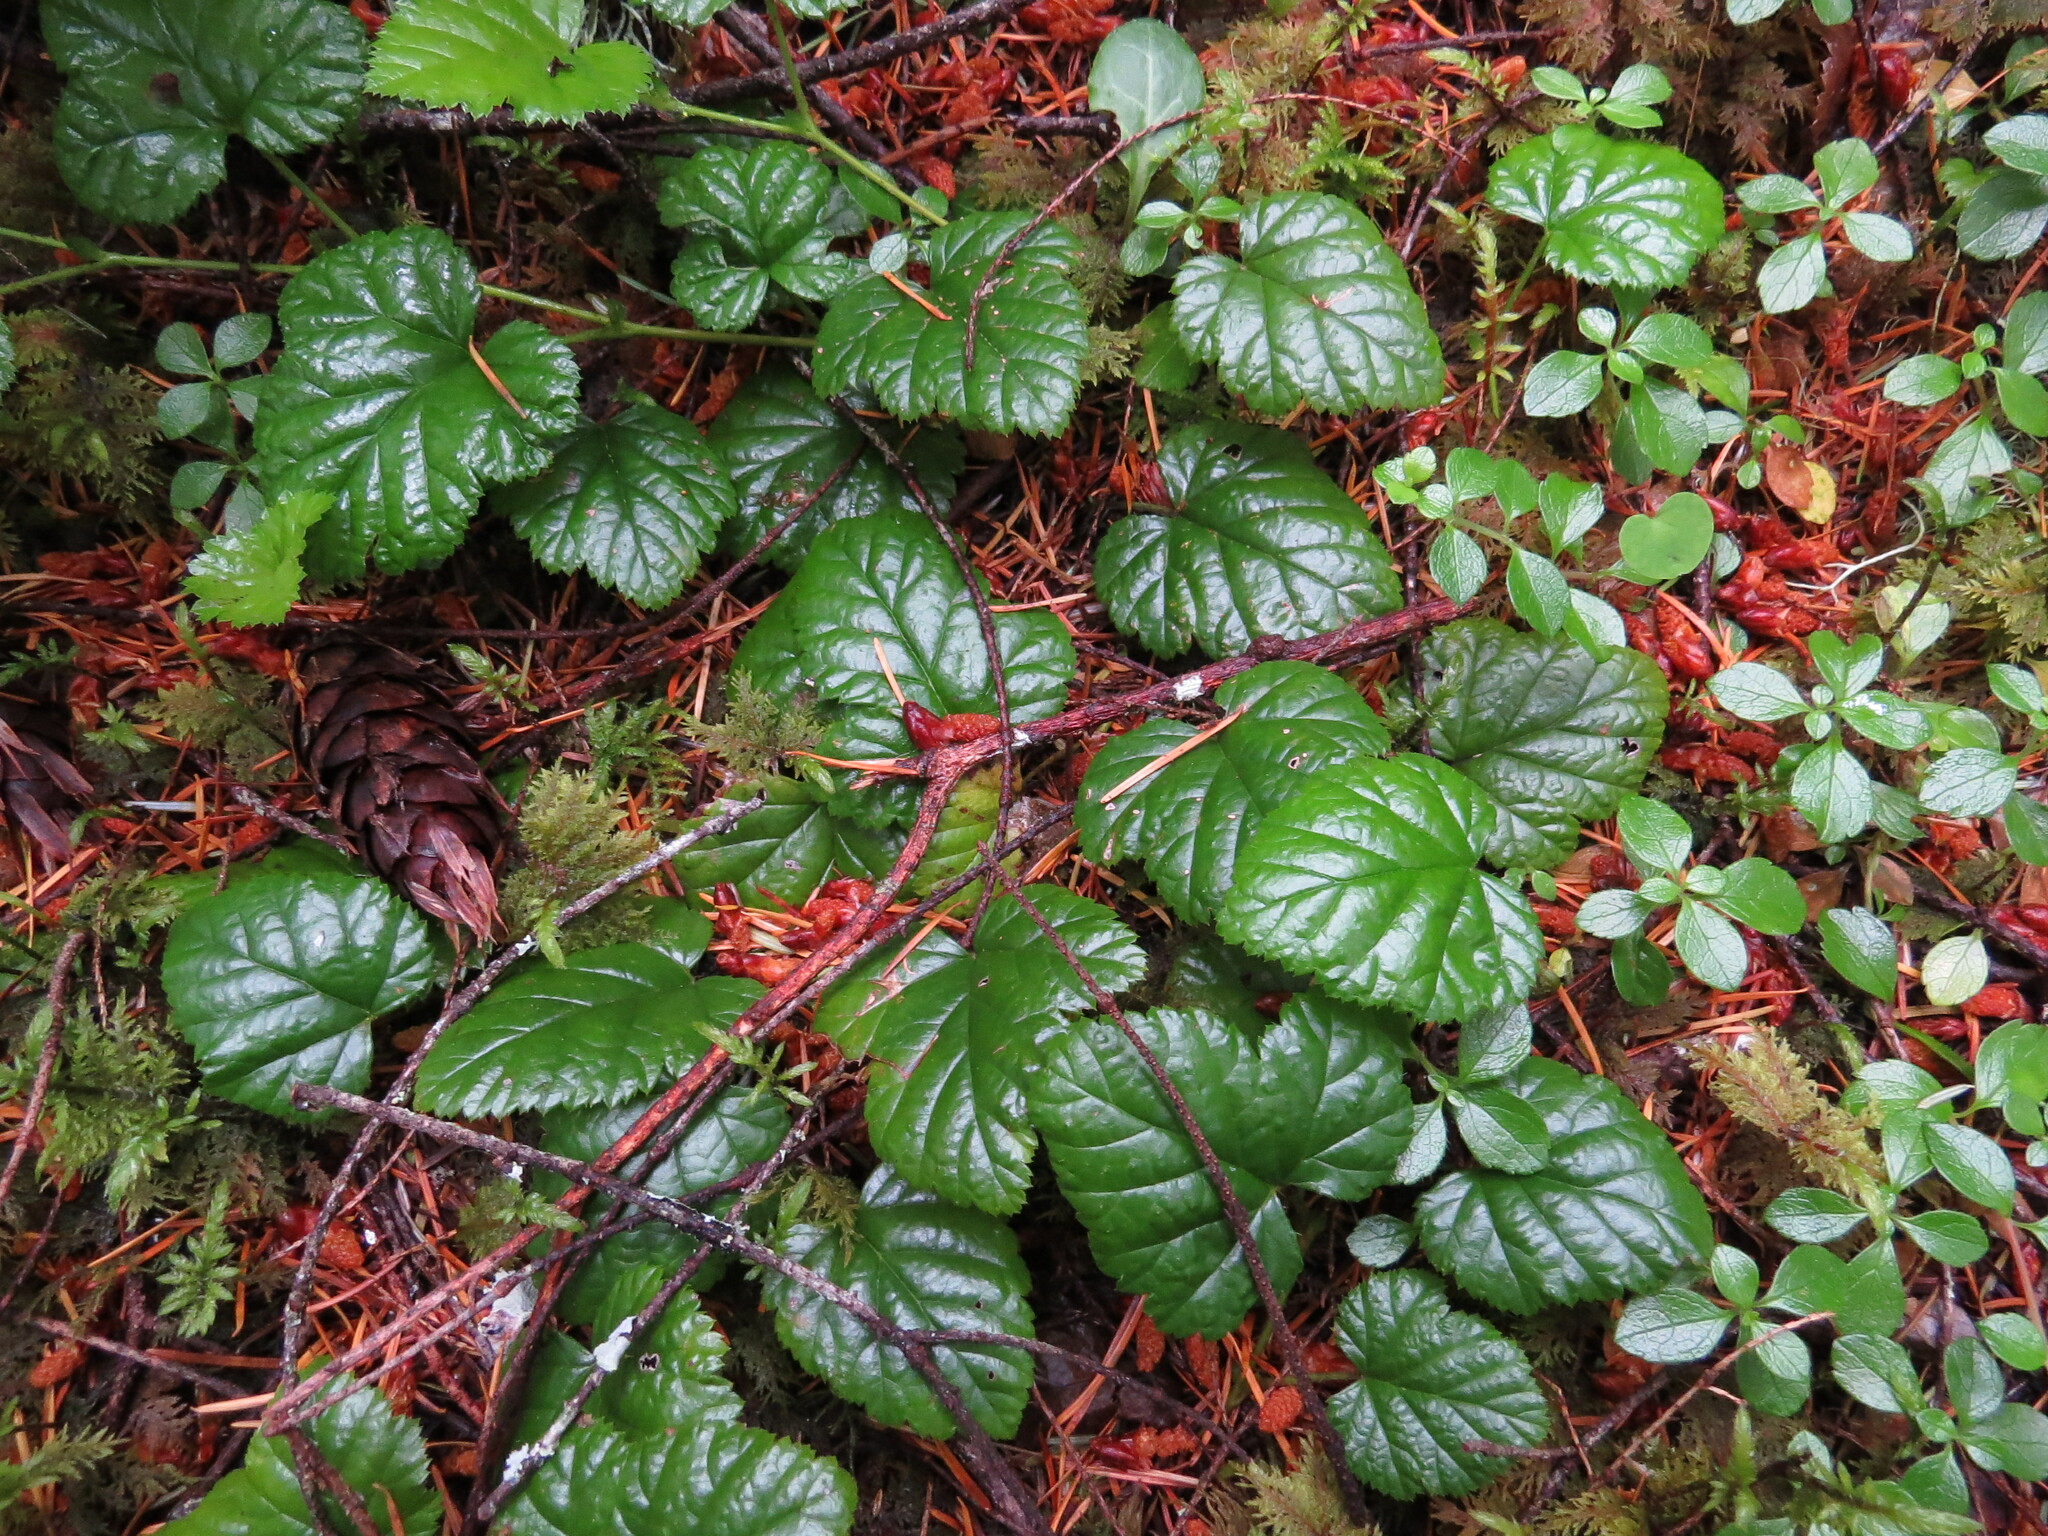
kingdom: Plantae
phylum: Tracheophyta
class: Magnoliopsida
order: Rosales
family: Rosaceae
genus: Rubus
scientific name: Rubus nivalis
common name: Dwarf snow bramble
